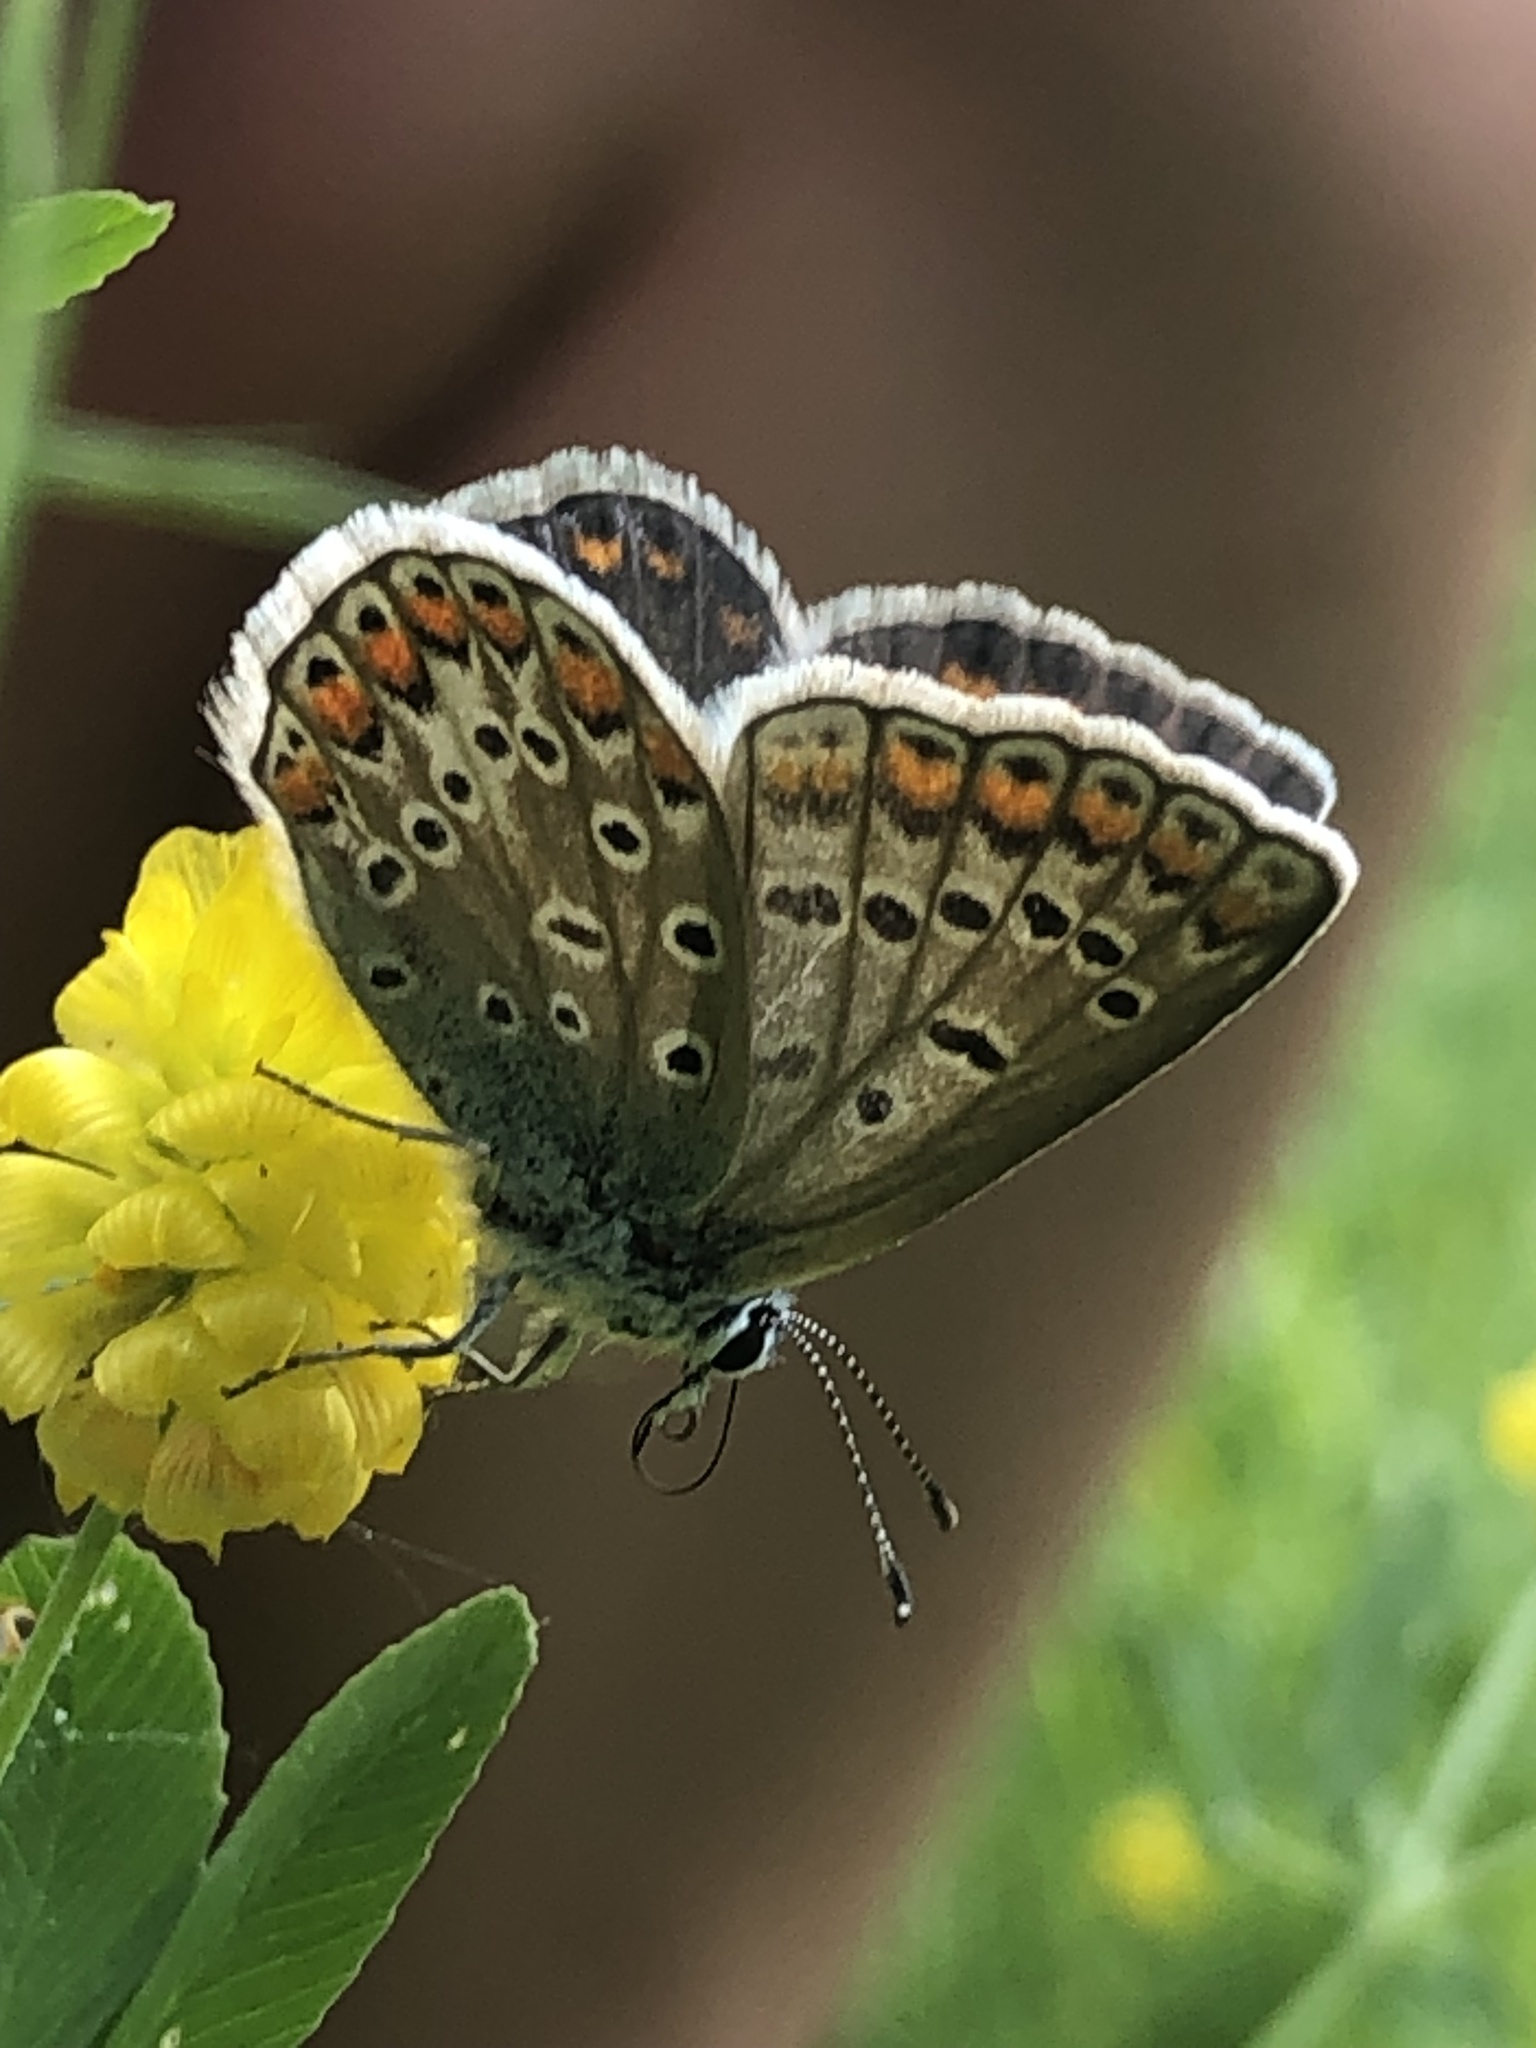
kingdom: Animalia
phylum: Arthropoda
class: Insecta
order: Lepidoptera
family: Lycaenidae
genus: Polyommatus
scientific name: Polyommatus icarus
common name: Common blue
